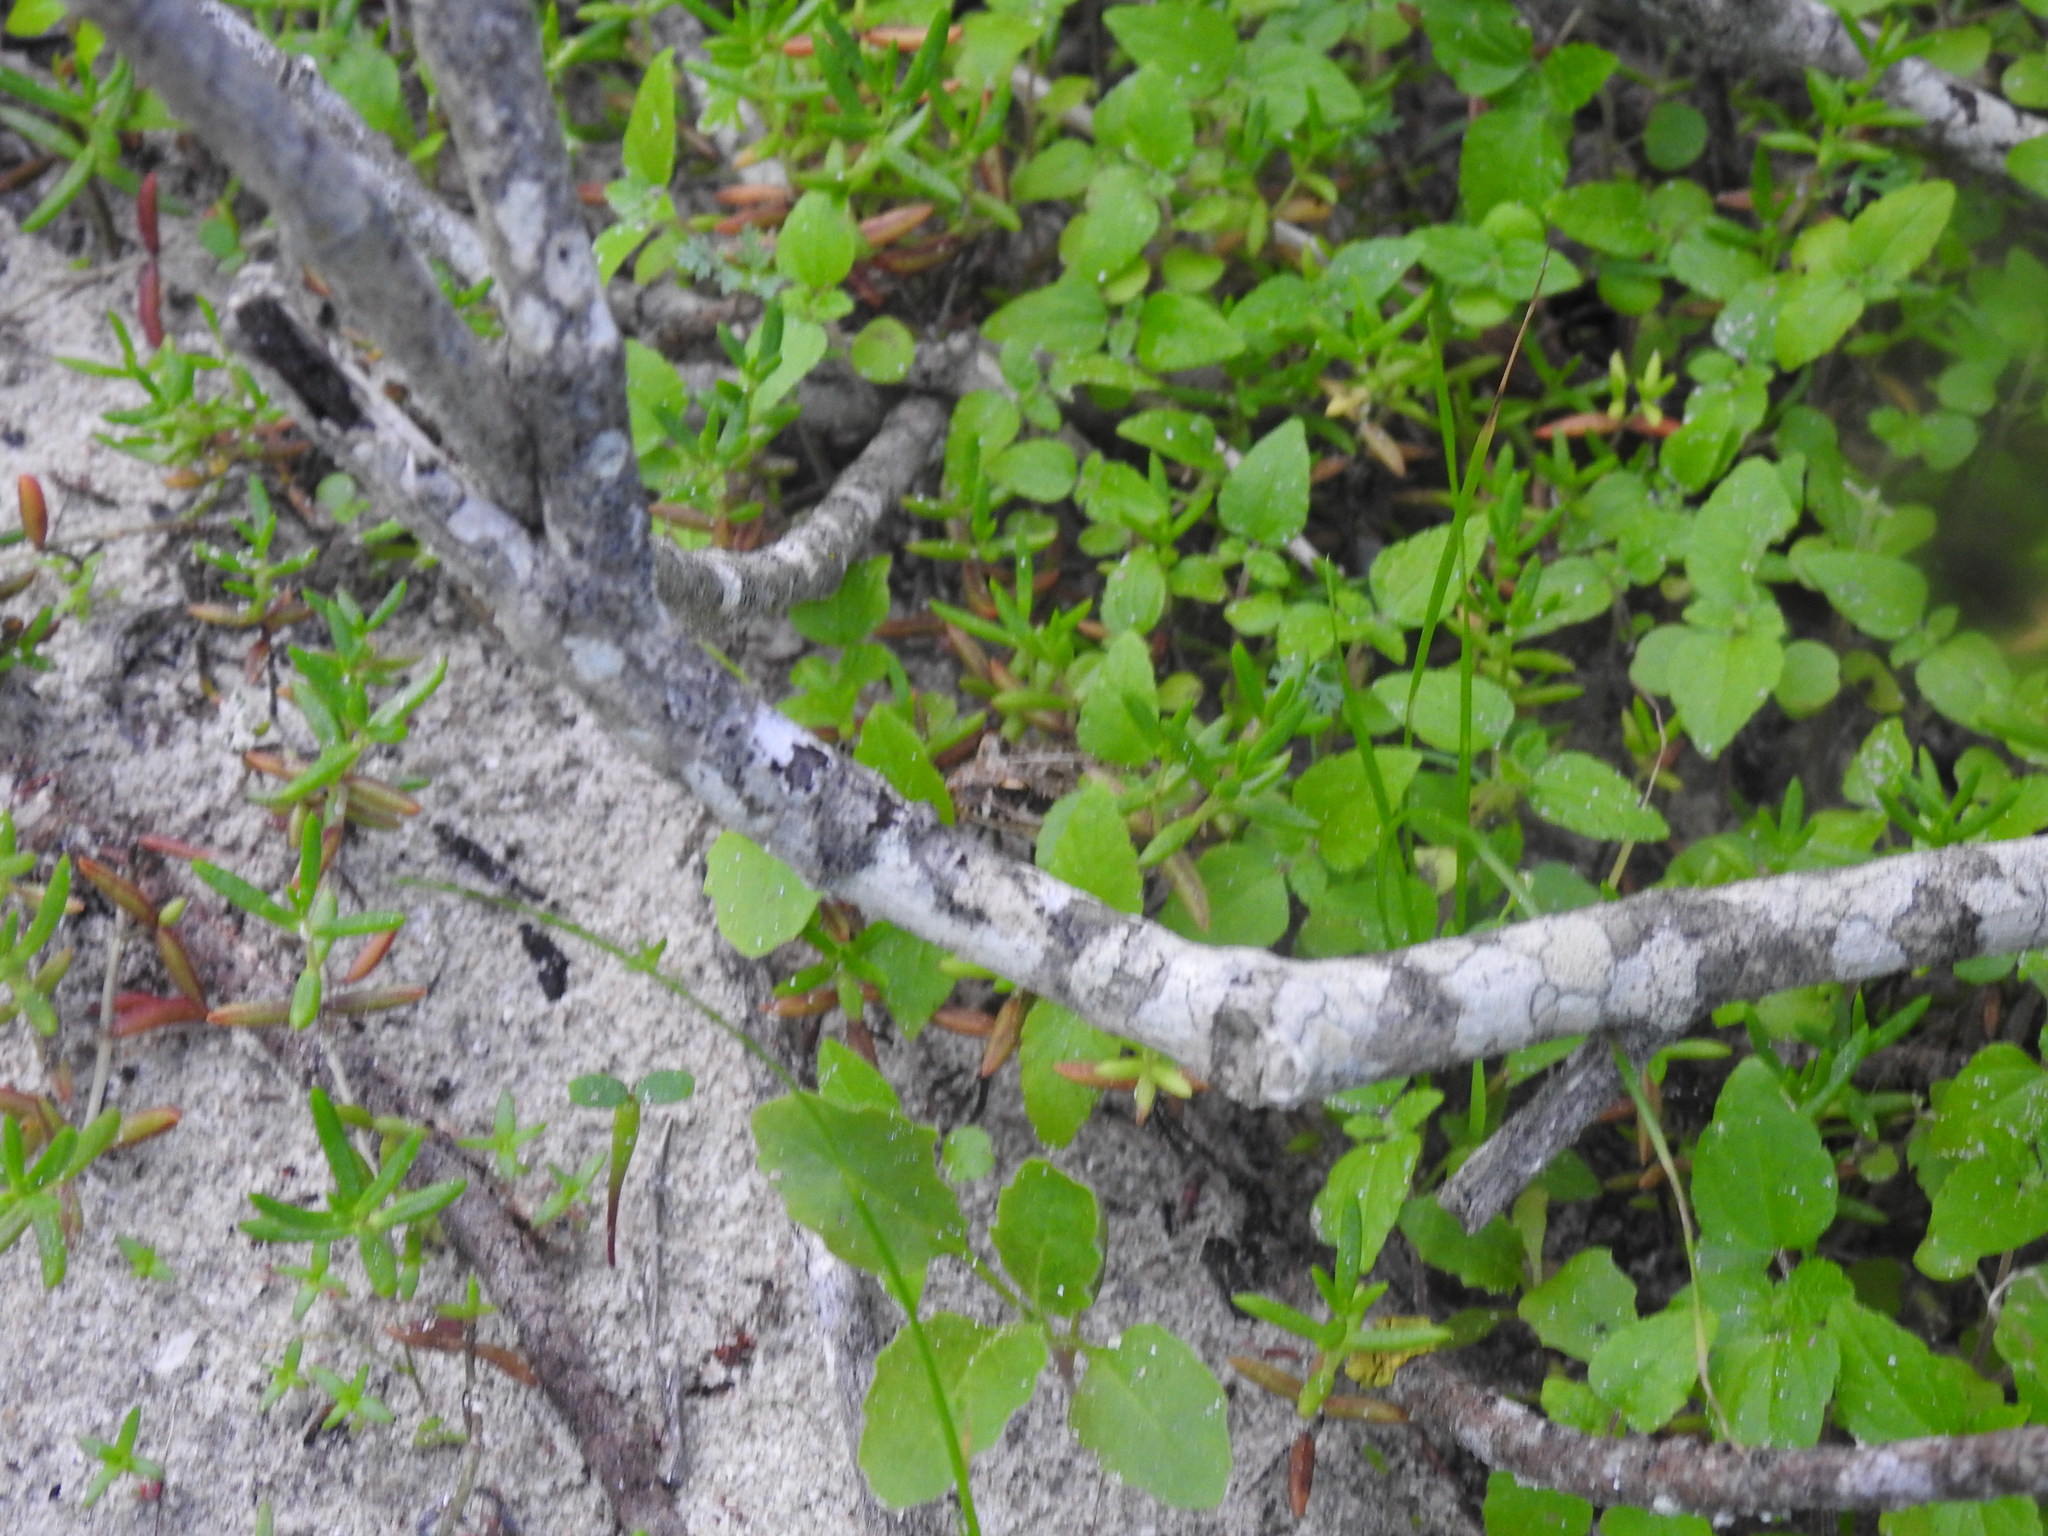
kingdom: Animalia
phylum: Chordata
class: Amphibia
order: Anura
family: Pyxicephalidae
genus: Strongylopus
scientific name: Strongylopus grayii
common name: Gray's stream frog
